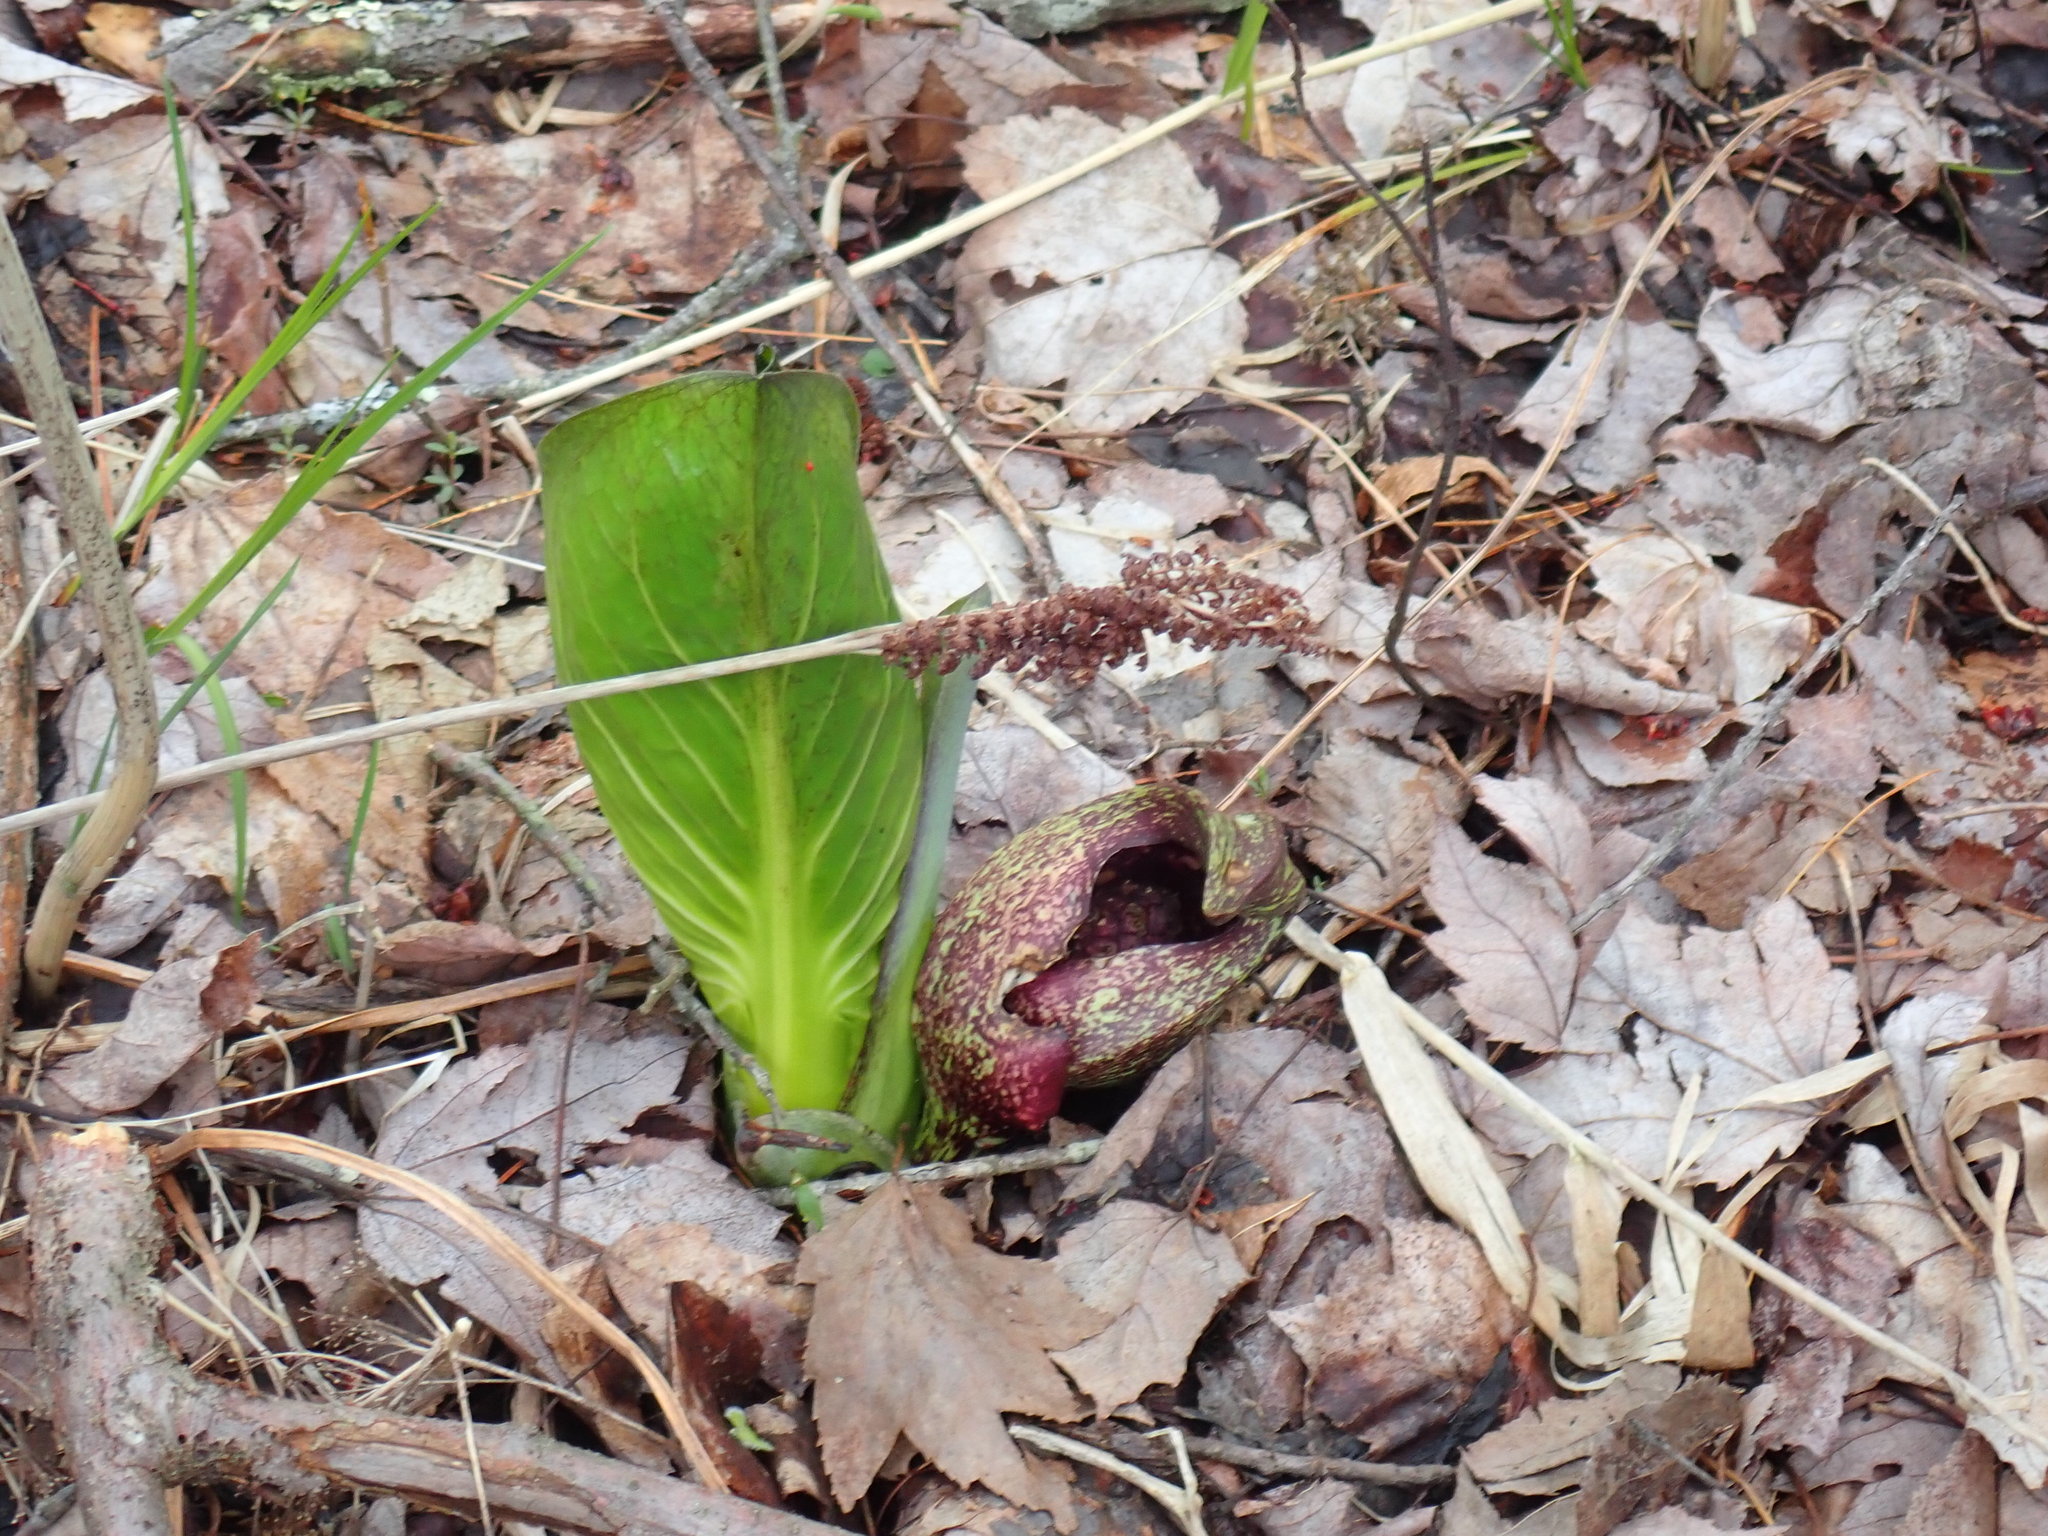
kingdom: Plantae
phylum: Tracheophyta
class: Liliopsida
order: Alismatales
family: Araceae
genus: Symplocarpus
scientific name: Symplocarpus foetidus
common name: Eastern skunk cabbage
